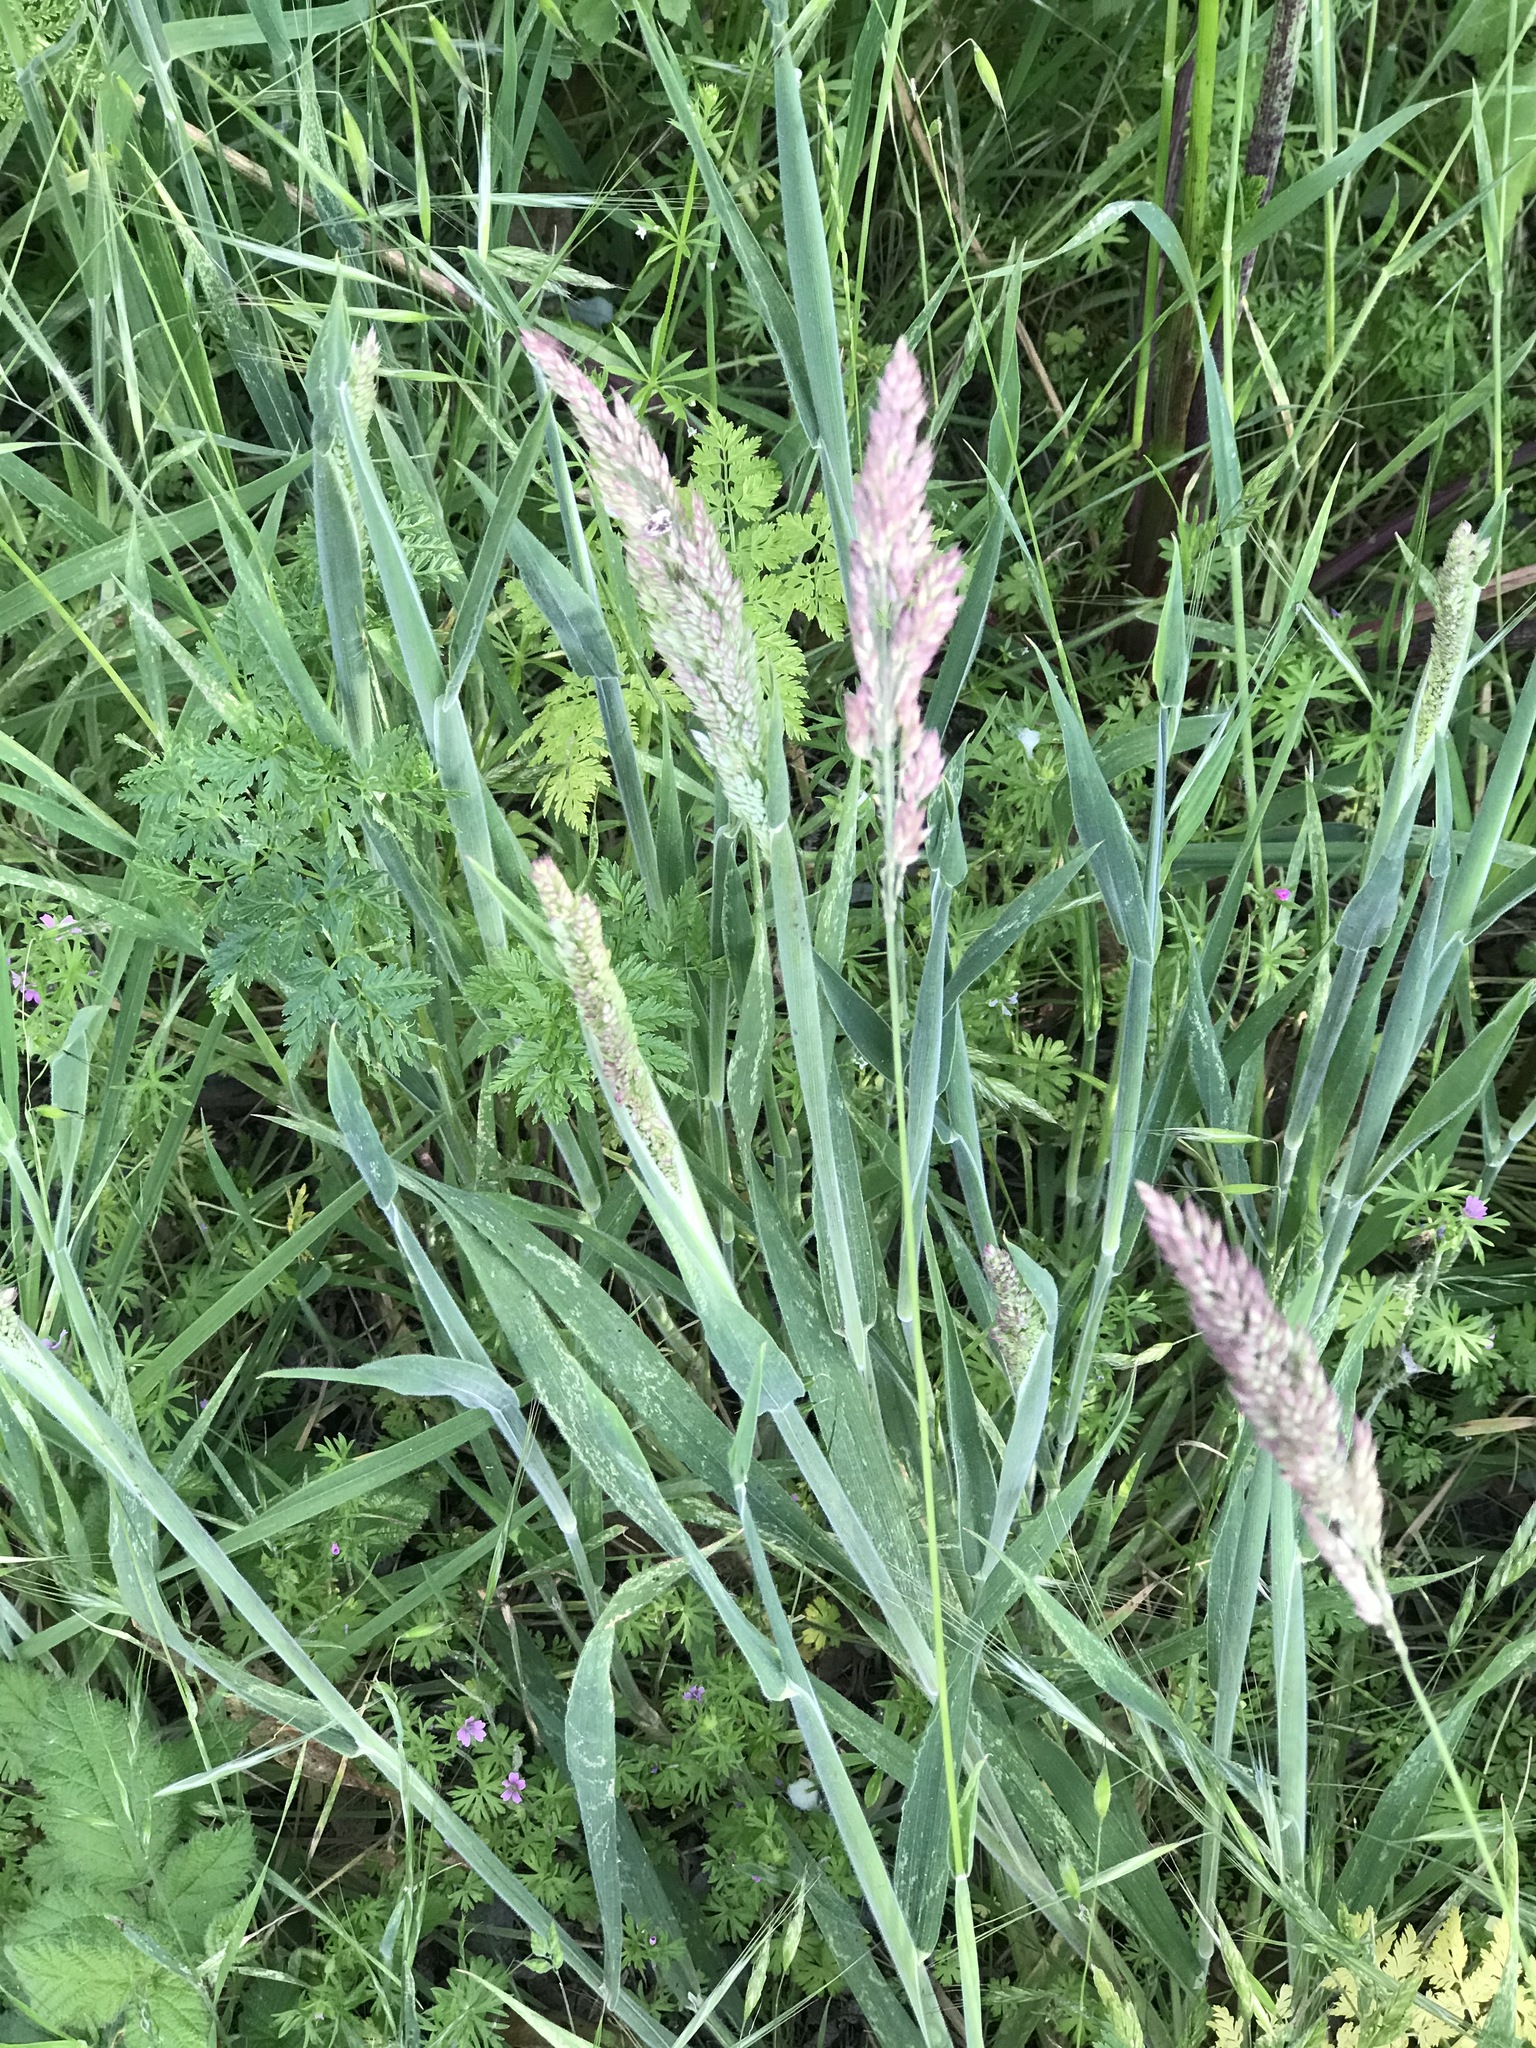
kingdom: Plantae
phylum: Tracheophyta
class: Liliopsida
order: Poales
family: Poaceae
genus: Holcus
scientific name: Holcus lanatus
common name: Yorkshire-fog
